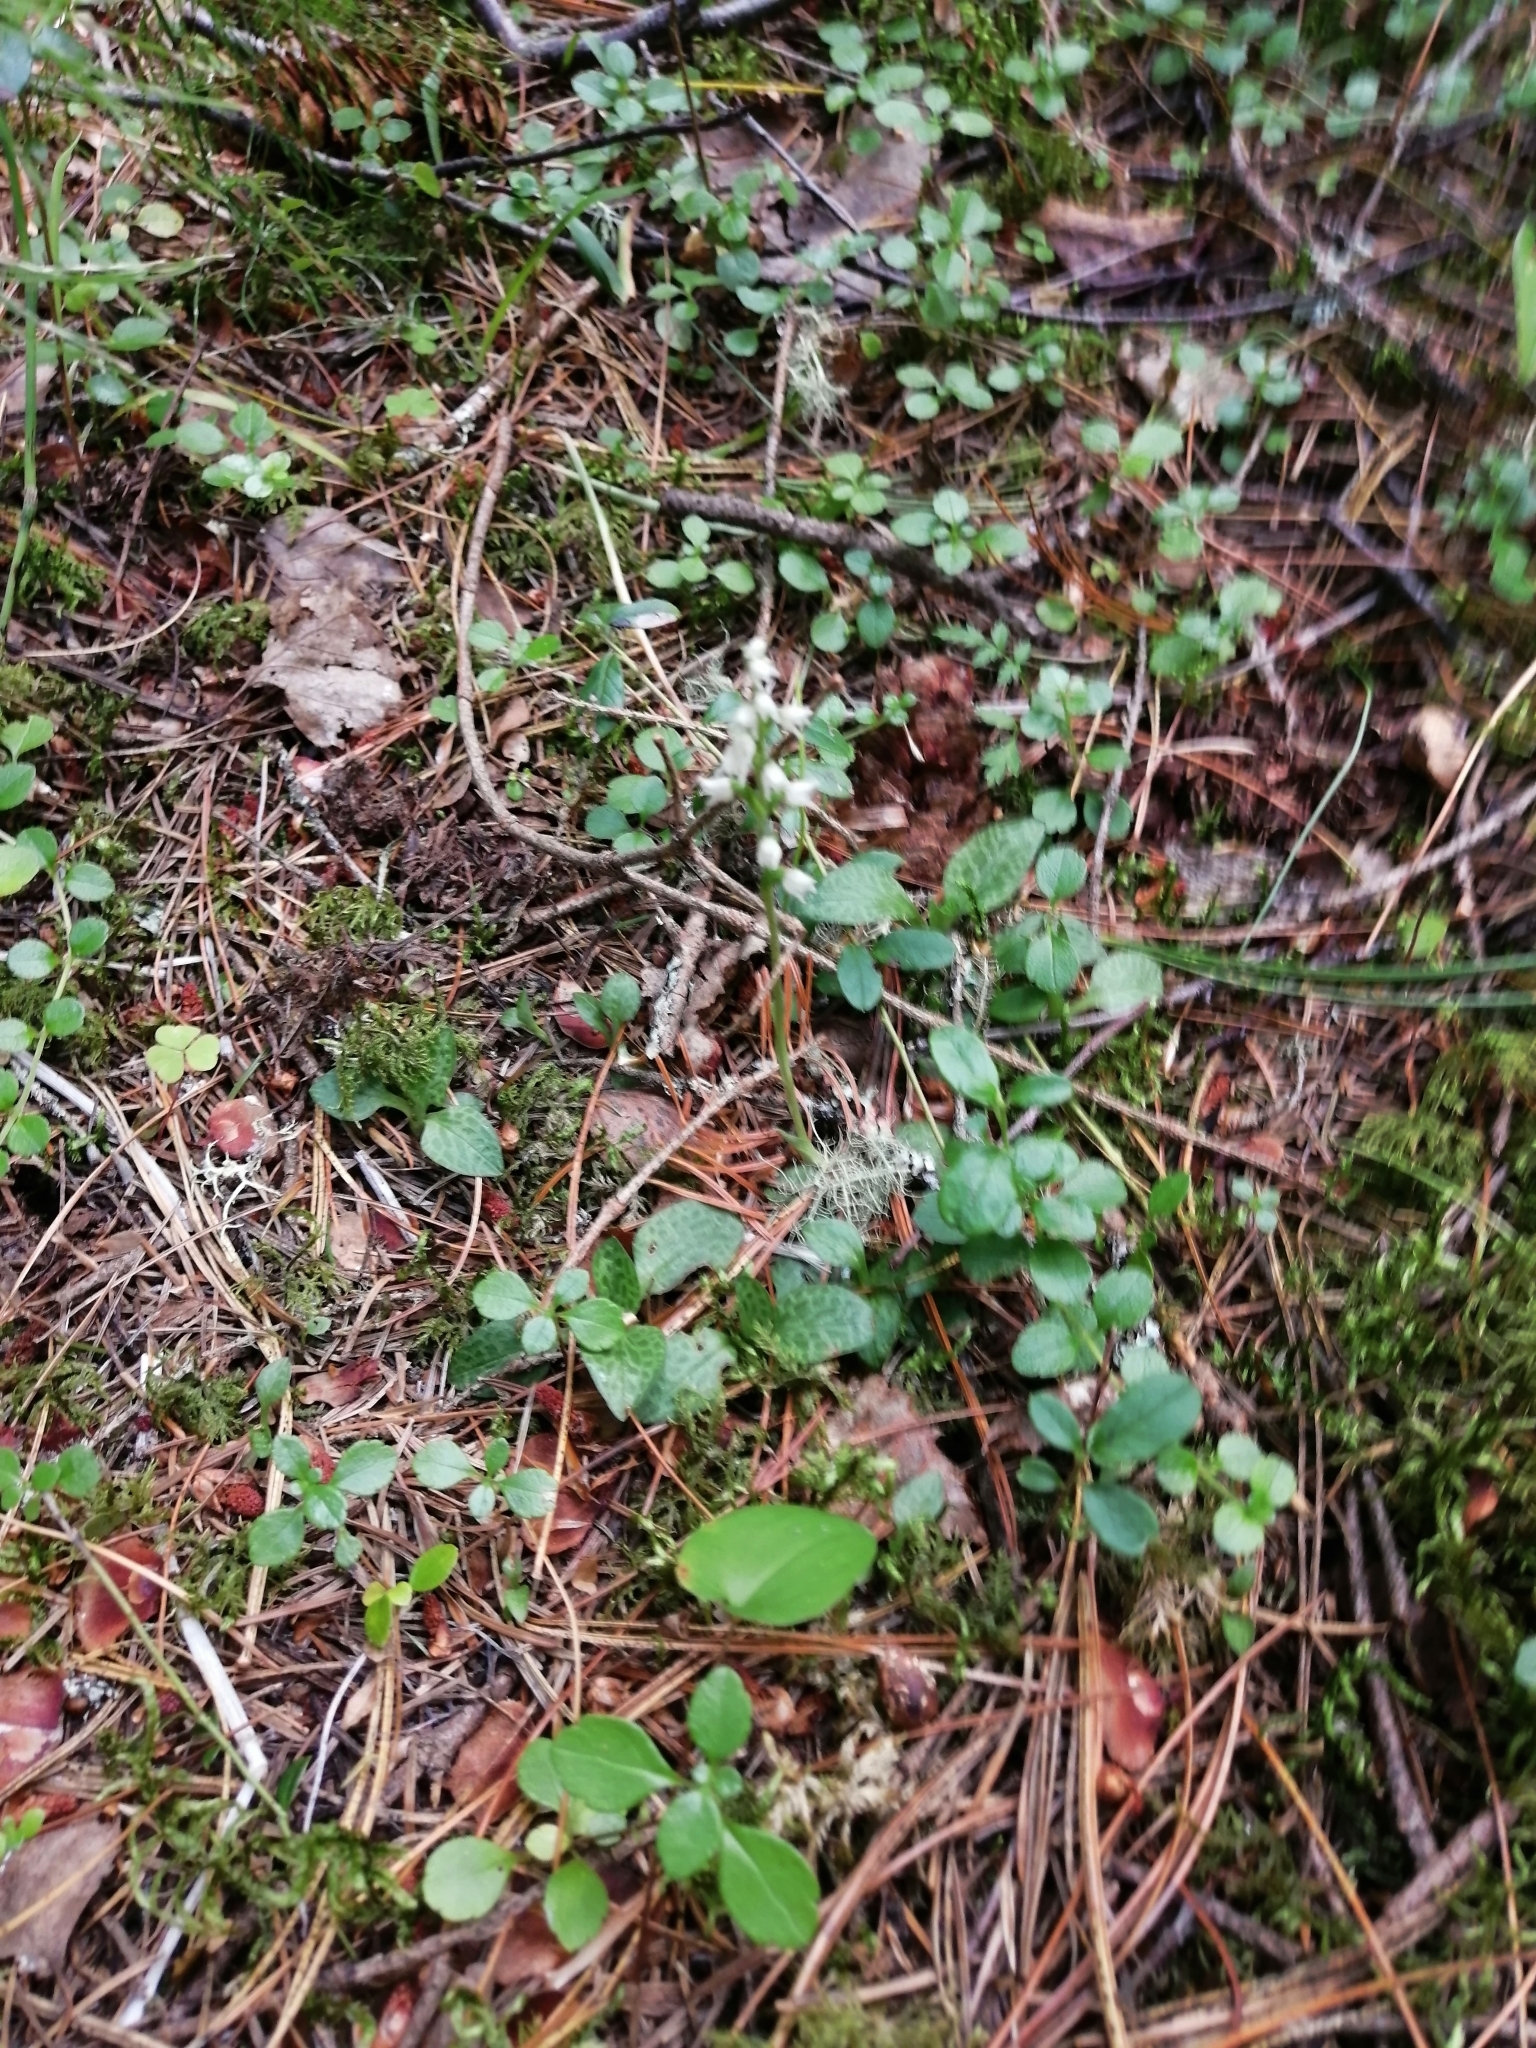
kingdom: Plantae
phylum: Tracheophyta
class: Liliopsida
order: Asparagales
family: Orchidaceae
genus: Goodyera
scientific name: Goodyera repens
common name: Creeping lady's-tresses
